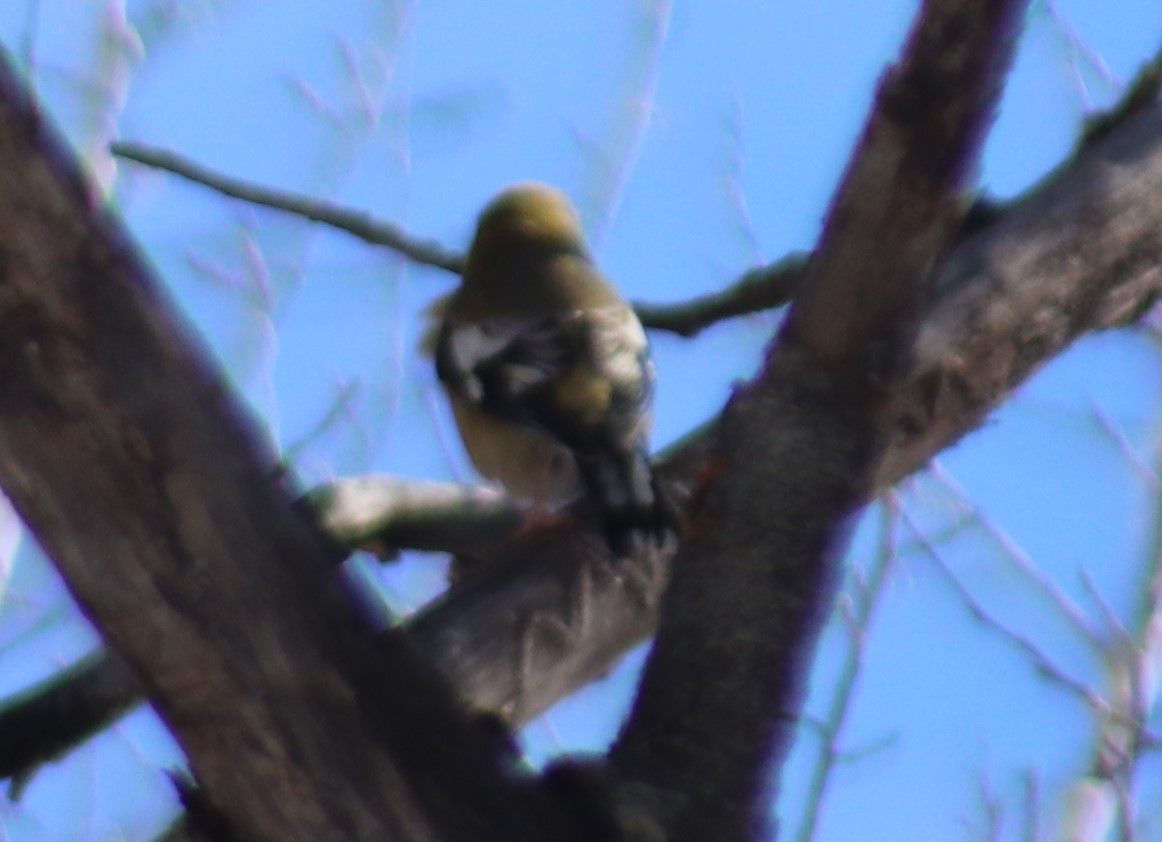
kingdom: Animalia
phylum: Chordata
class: Aves
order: Passeriformes
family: Fringillidae
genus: Hesperiphona
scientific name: Hesperiphona vespertina
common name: Evening grosbeak
